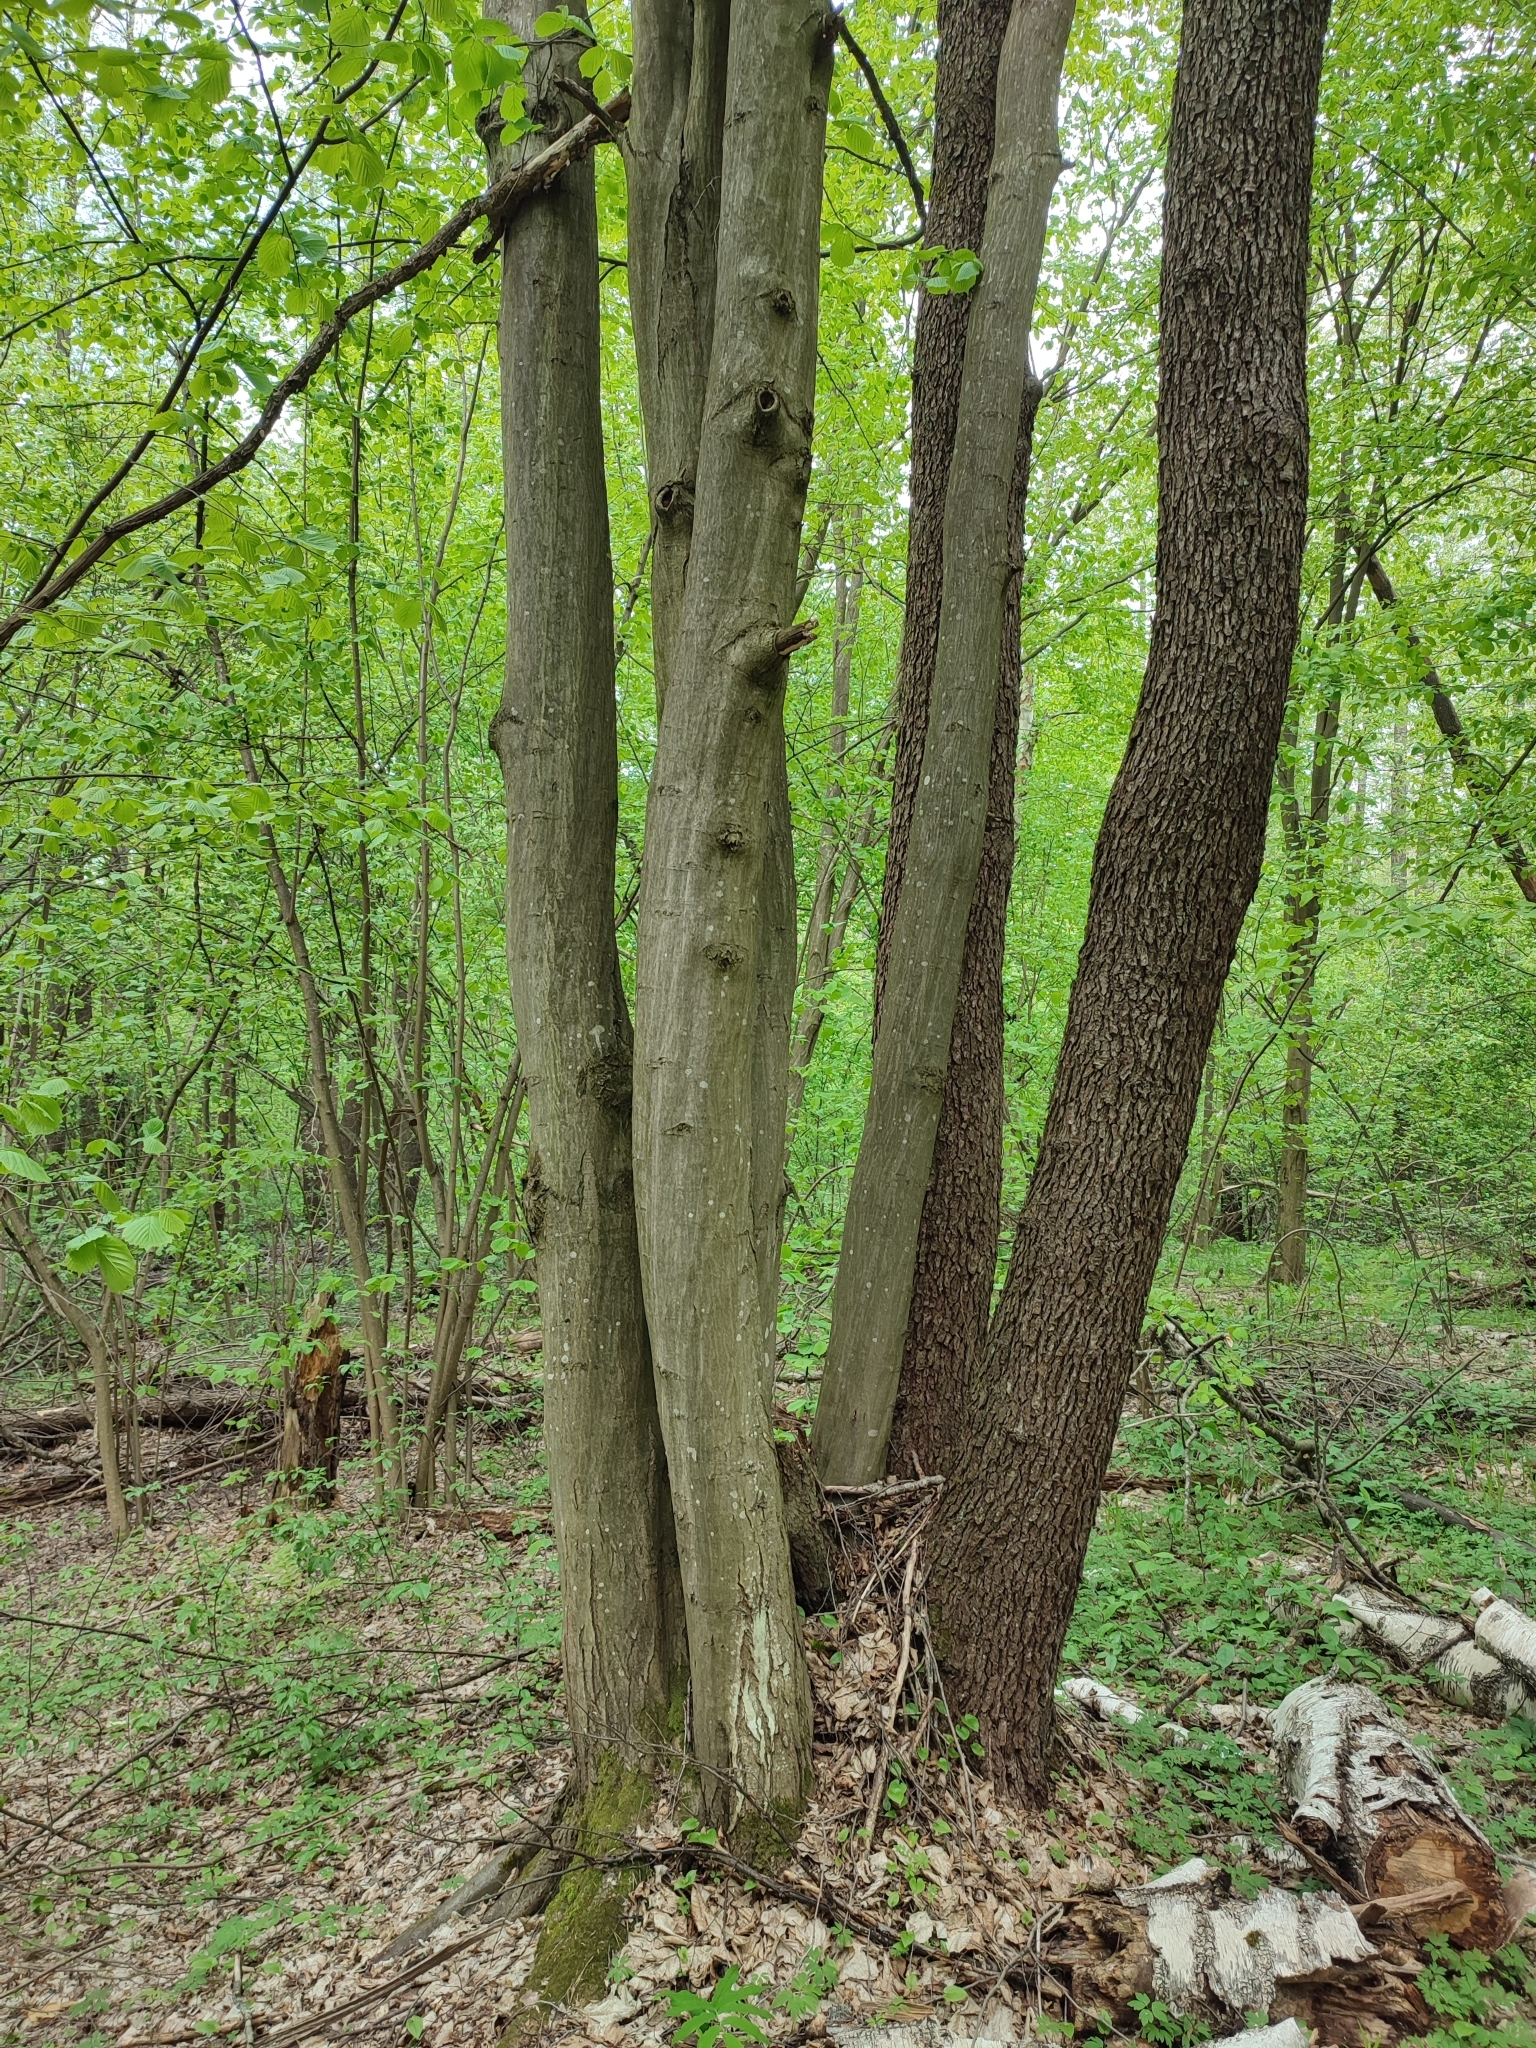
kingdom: Plantae
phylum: Tracheophyta
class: Magnoliopsida
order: Fagales
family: Betulaceae
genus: Carpinus
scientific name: Carpinus betulus
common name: Hornbeam
